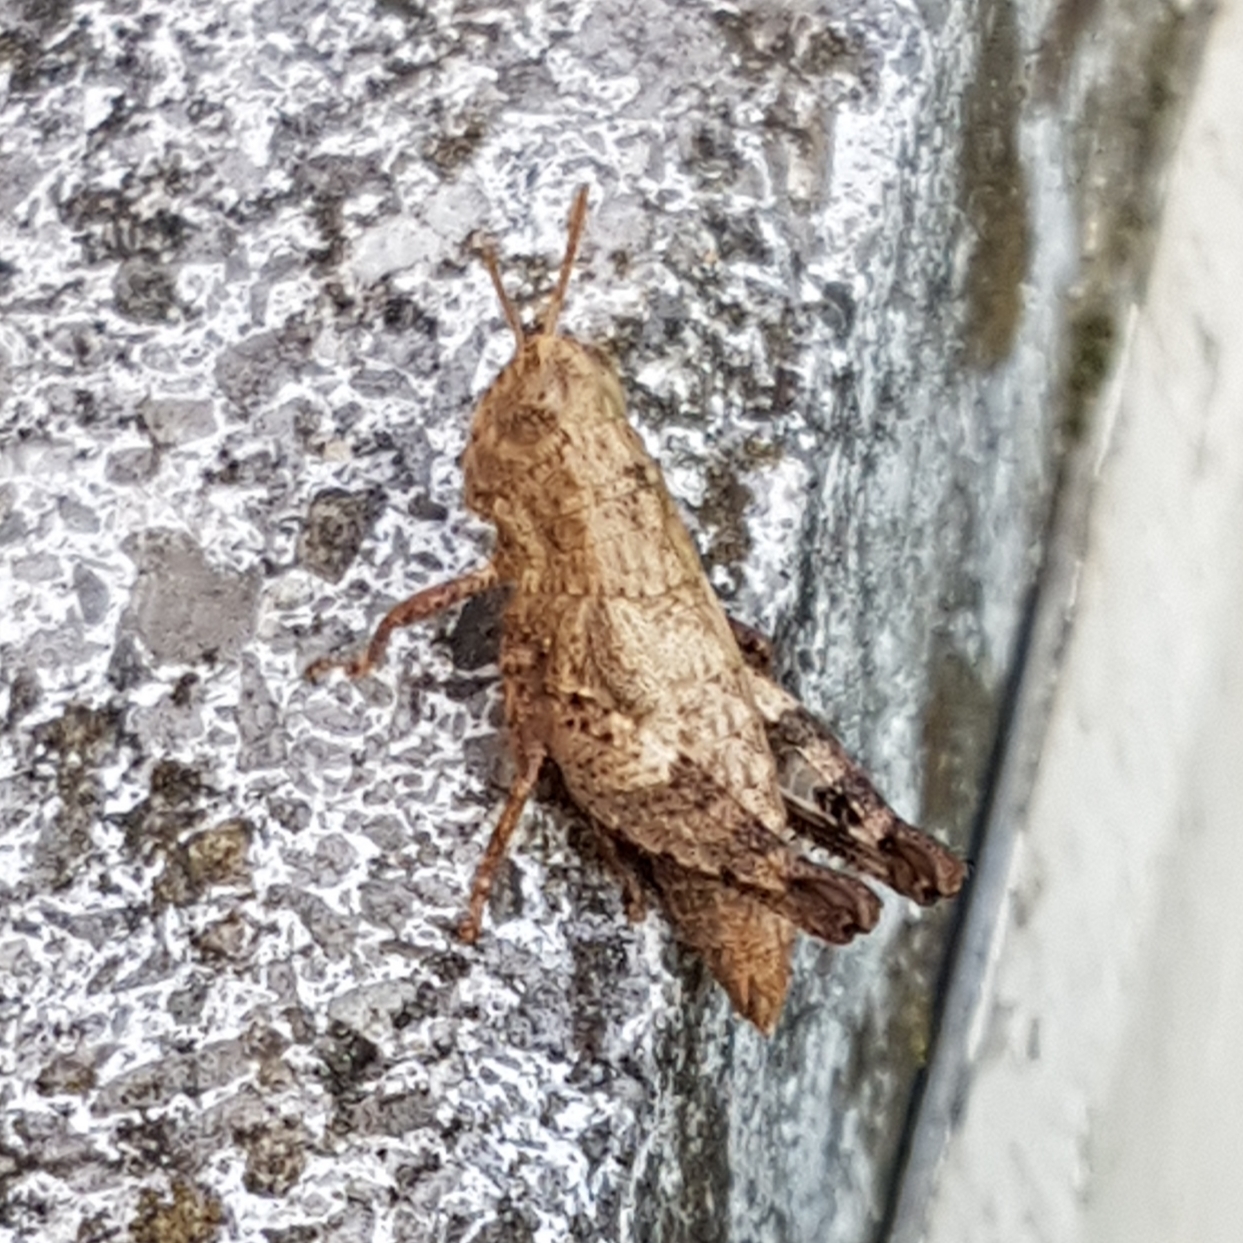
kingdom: Animalia
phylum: Arthropoda
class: Insecta
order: Orthoptera
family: Acrididae
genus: Pezotettix
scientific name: Pezotettix giornae
